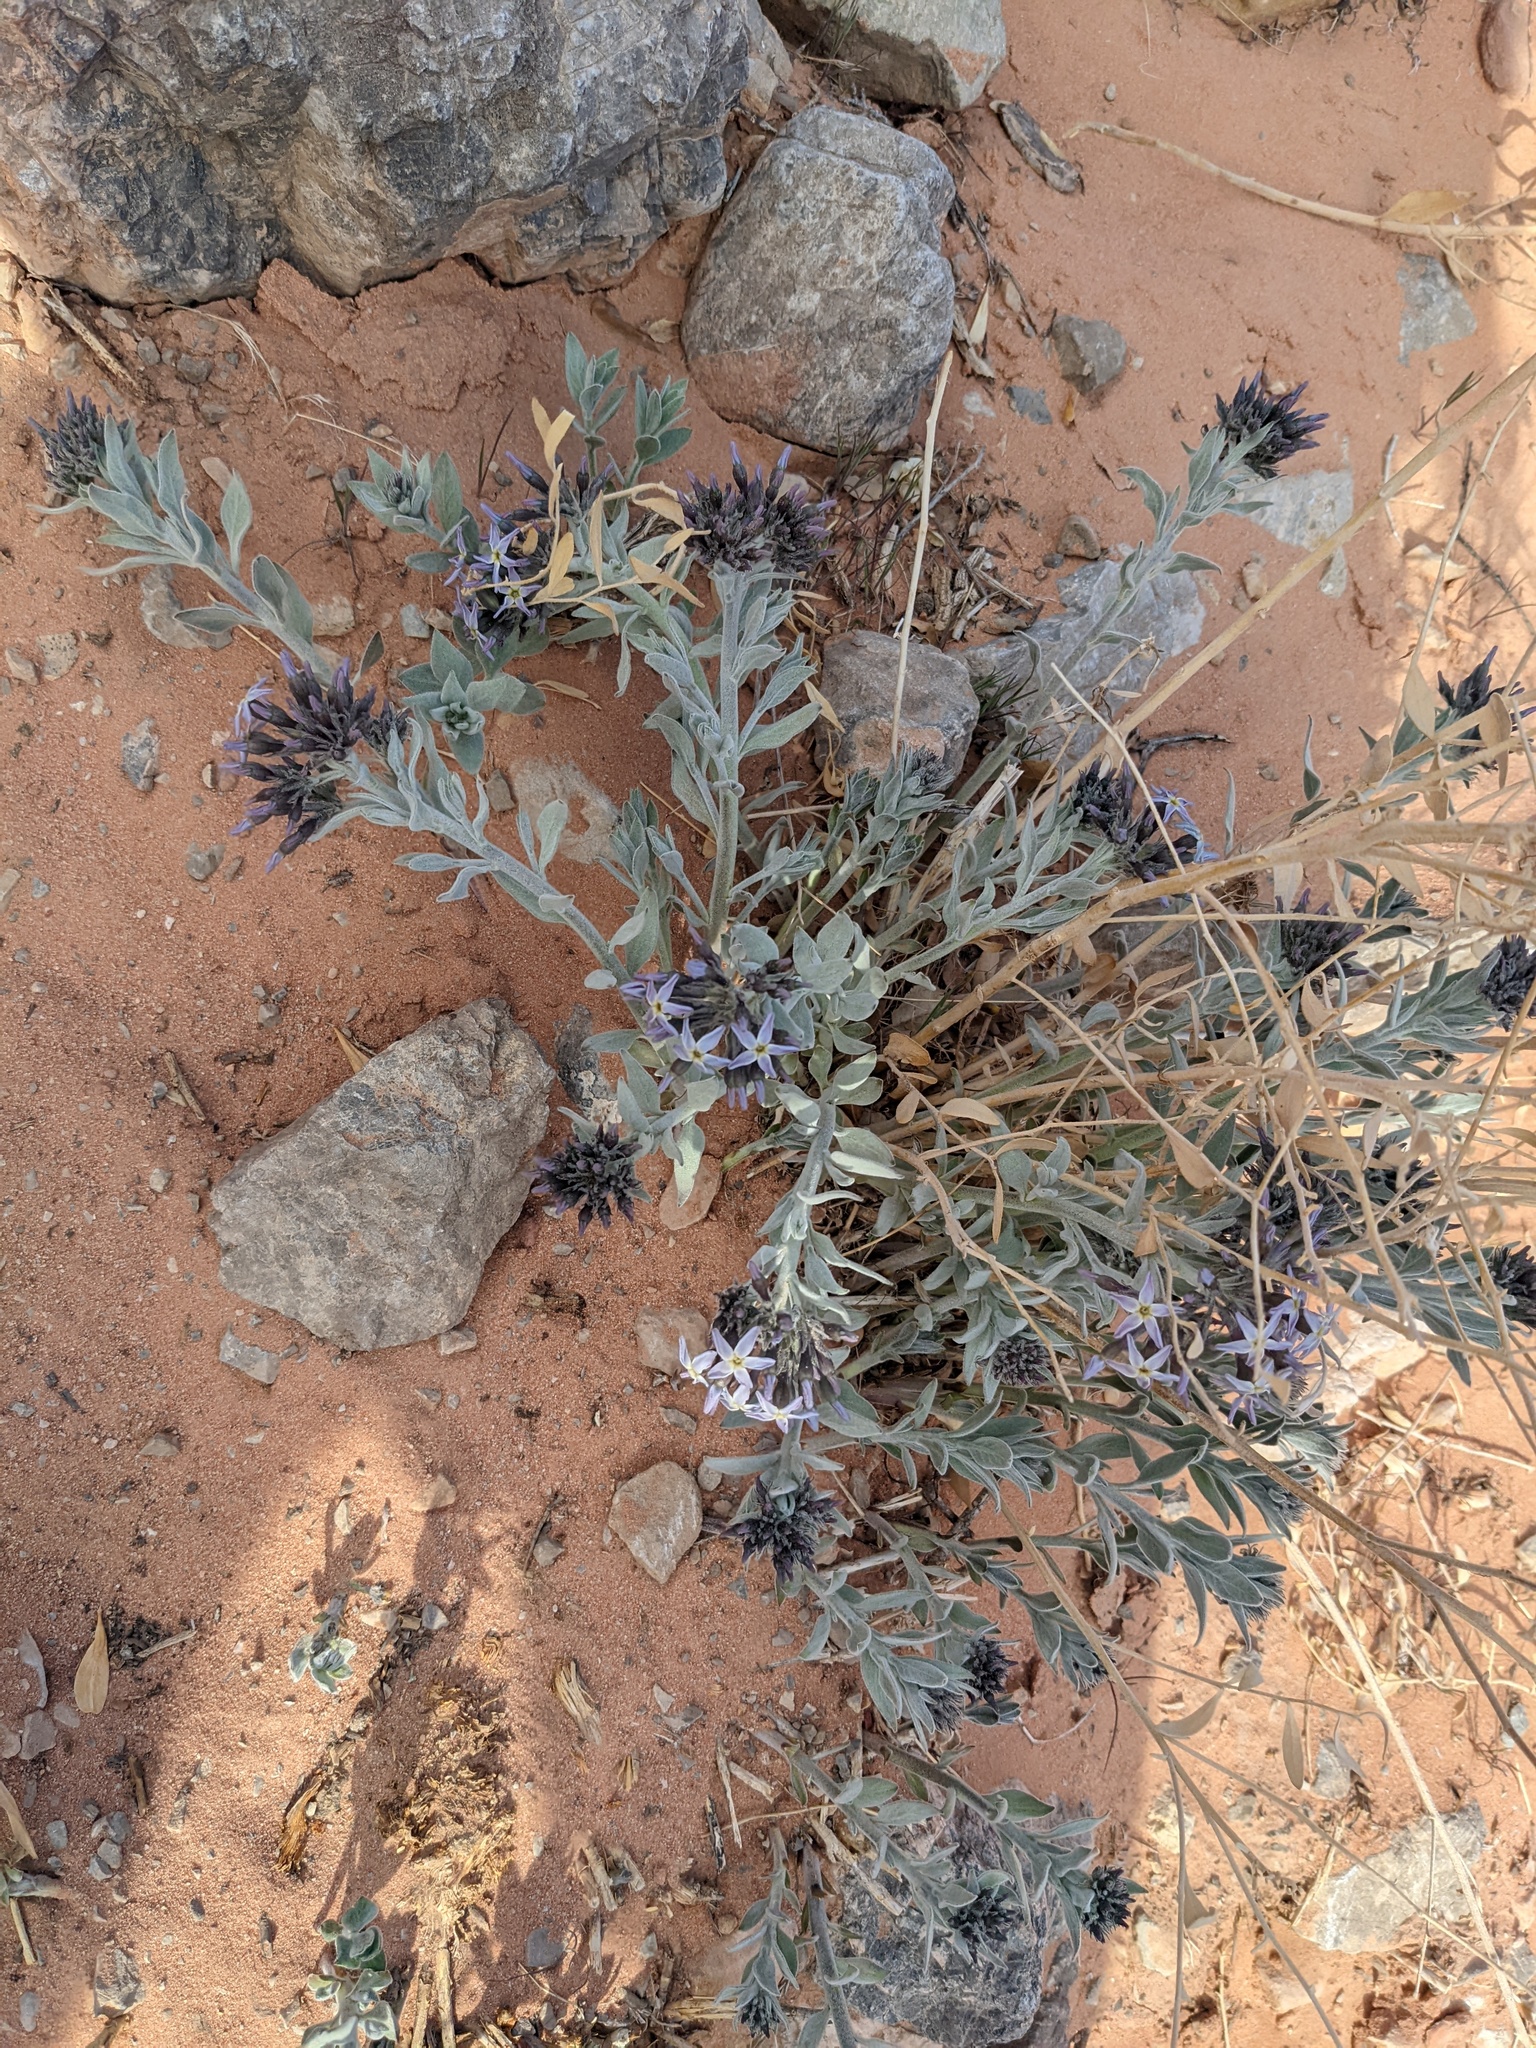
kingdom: Plantae
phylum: Tracheophyta
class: Magnoliopsida
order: Gentianales
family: Apocynaceae
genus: Amsonia
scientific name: Amsonia tomentosa
